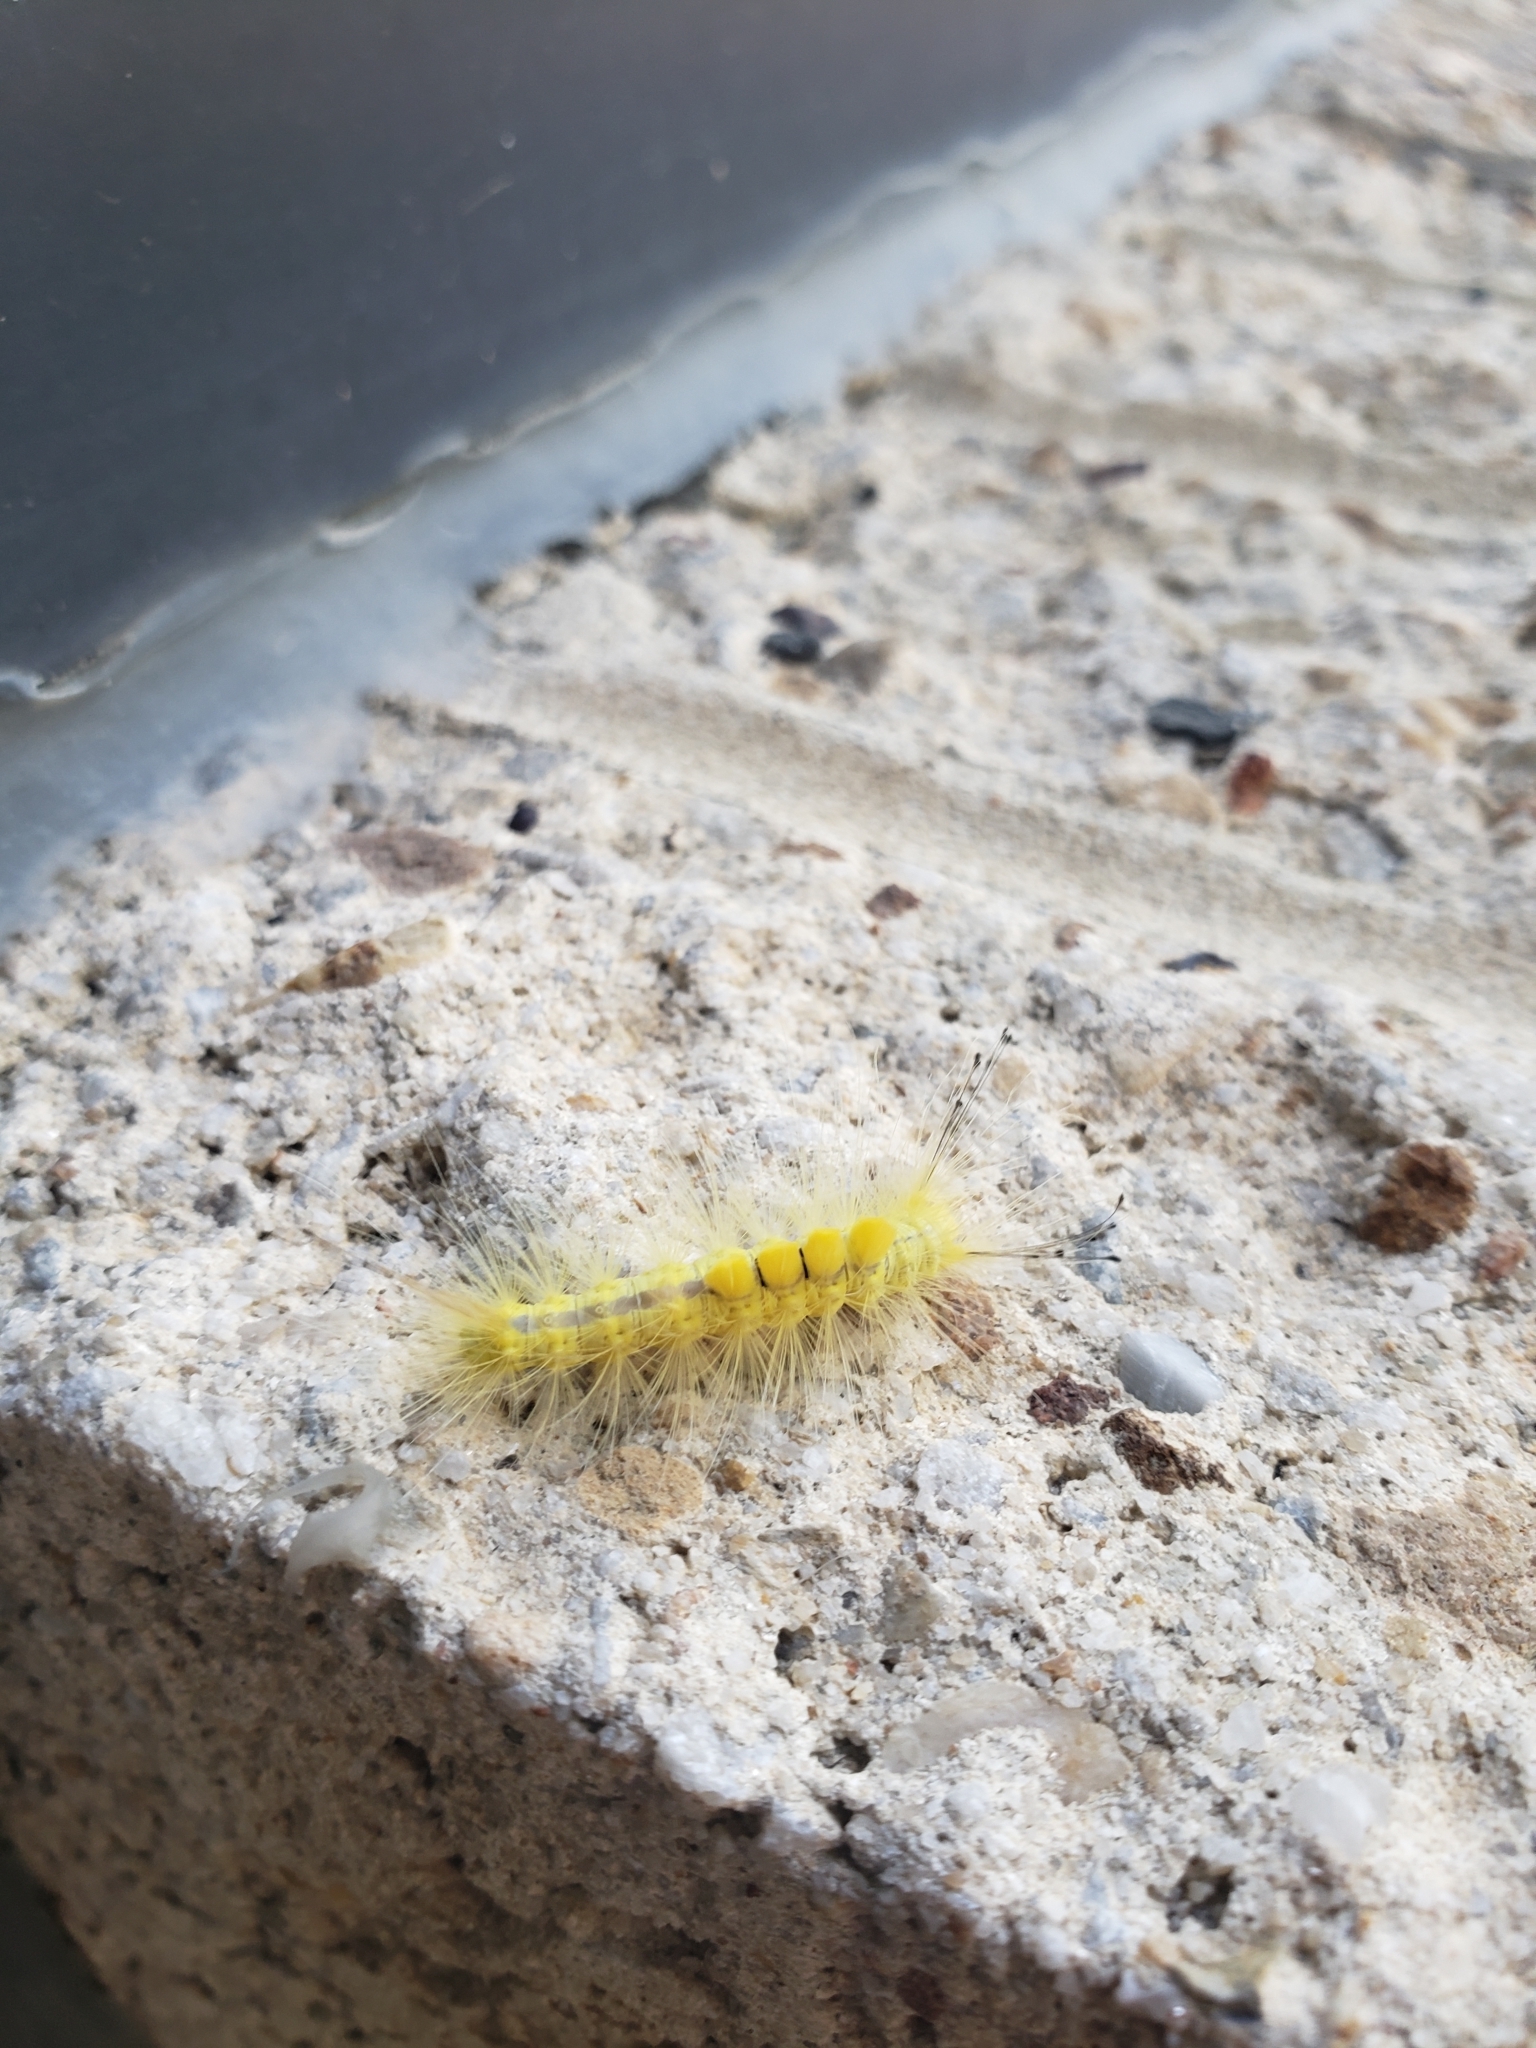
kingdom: Animalia
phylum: Arthropoda
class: Insecta
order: Lepidoptera
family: Erebidae
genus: Orgyia
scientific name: Orgyia definita
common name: Definite tussock moth
